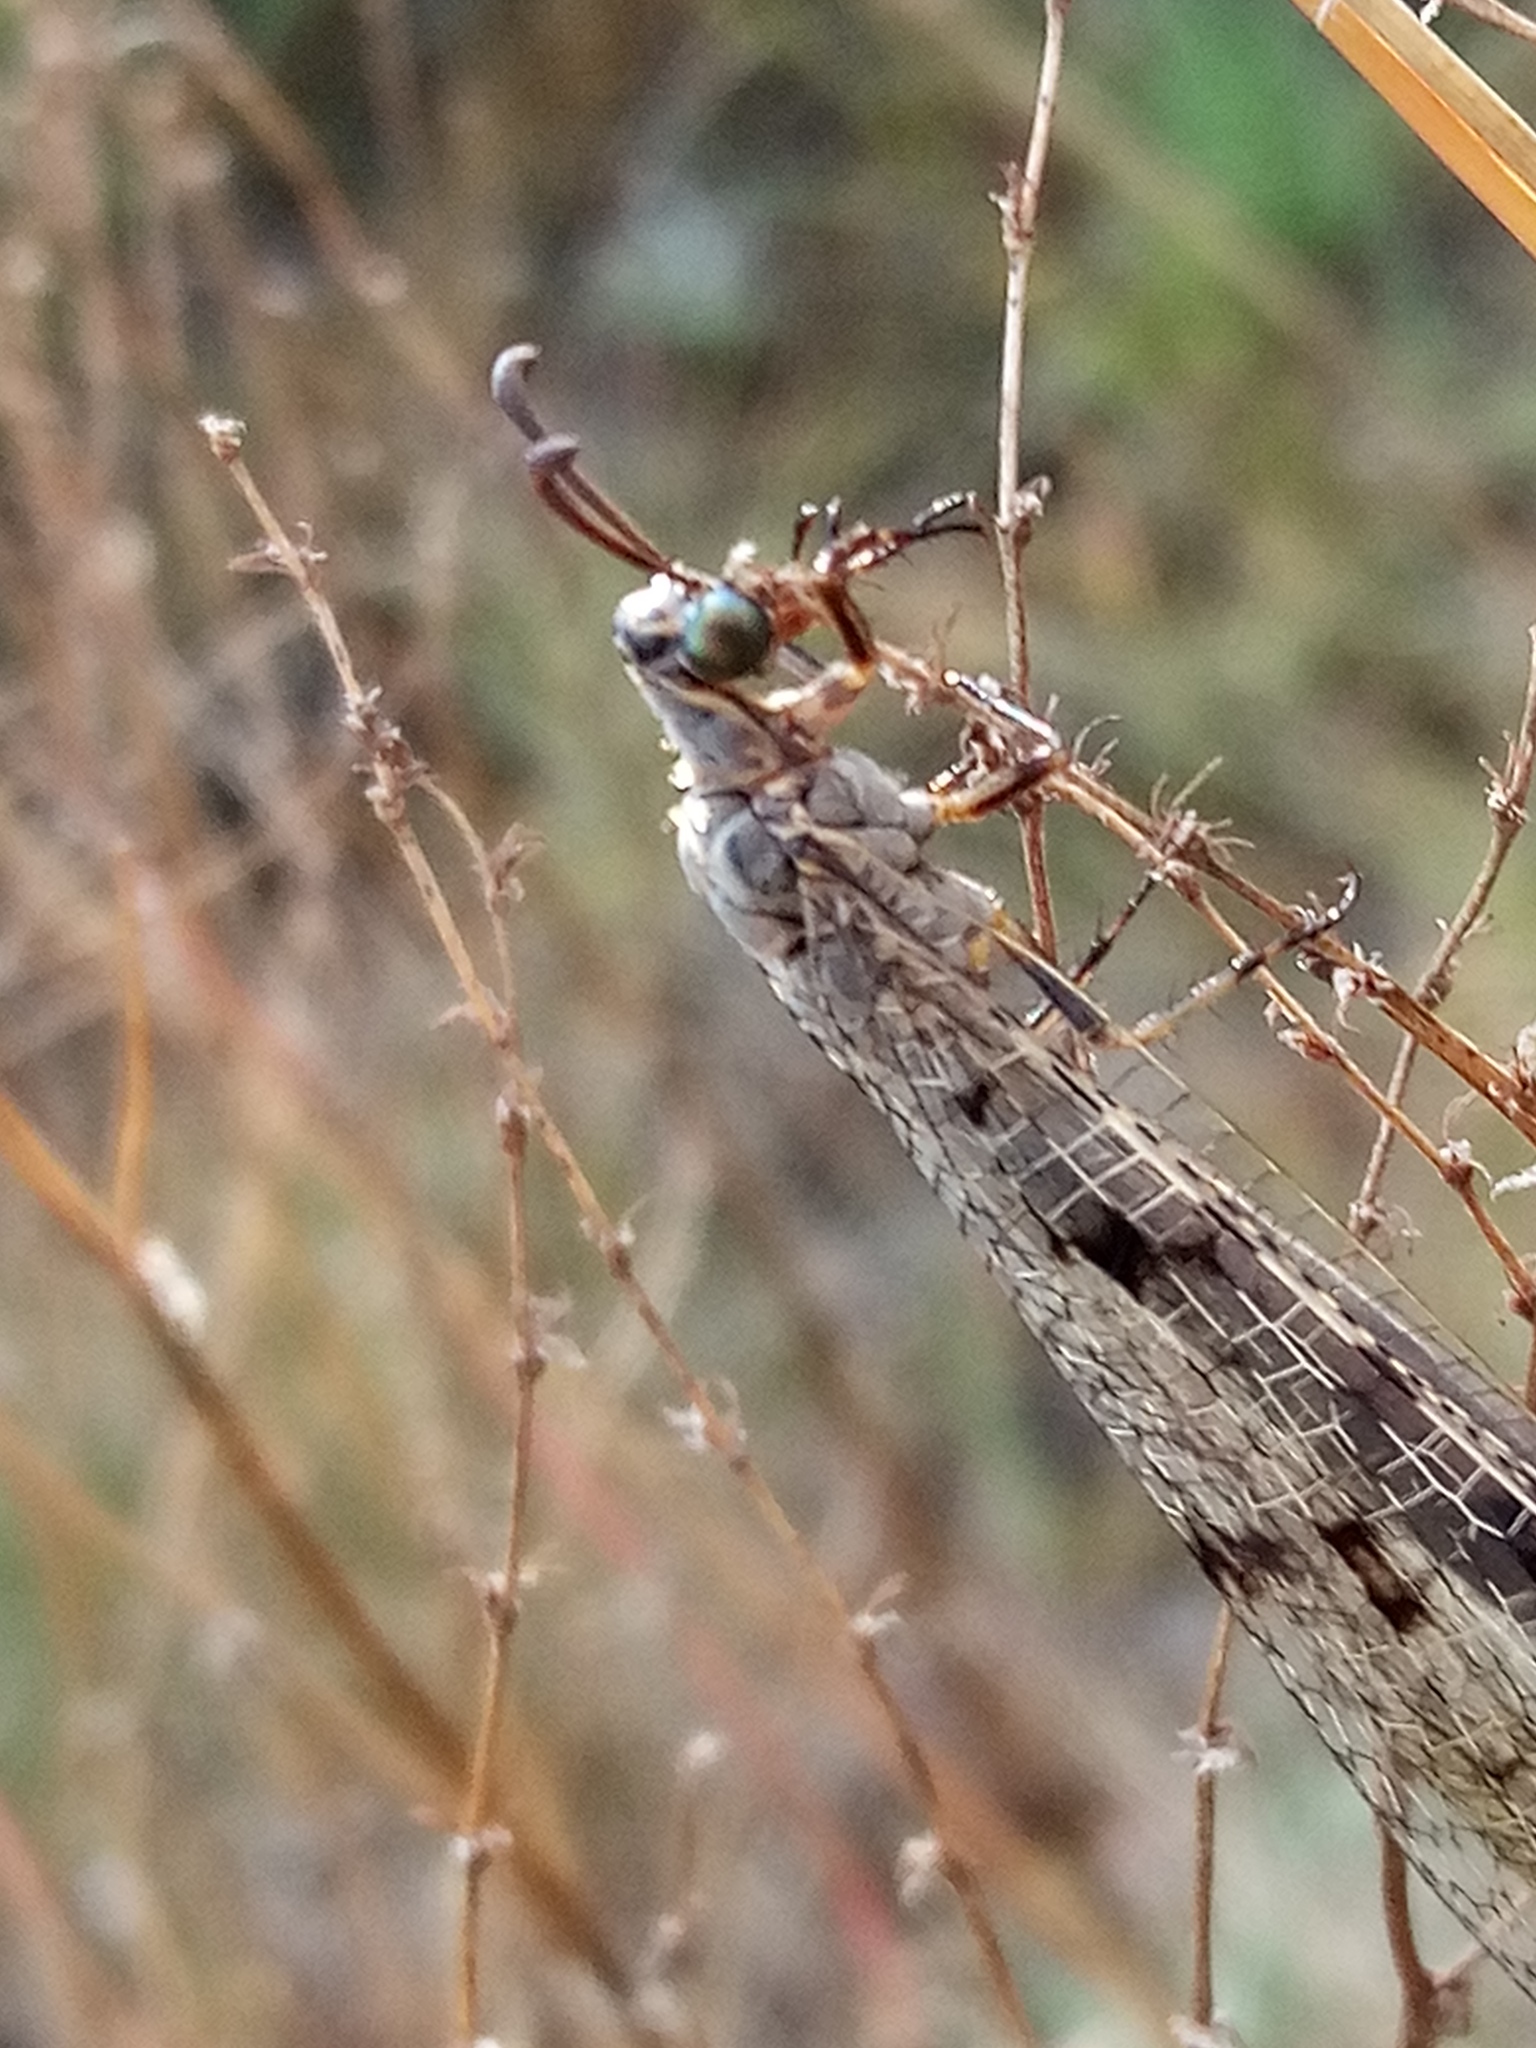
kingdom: Animalia
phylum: Arthropoda
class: Insecta
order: Neuroptera
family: Myrmeleontidae
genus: Euroleon
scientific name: Euroleon nostras
